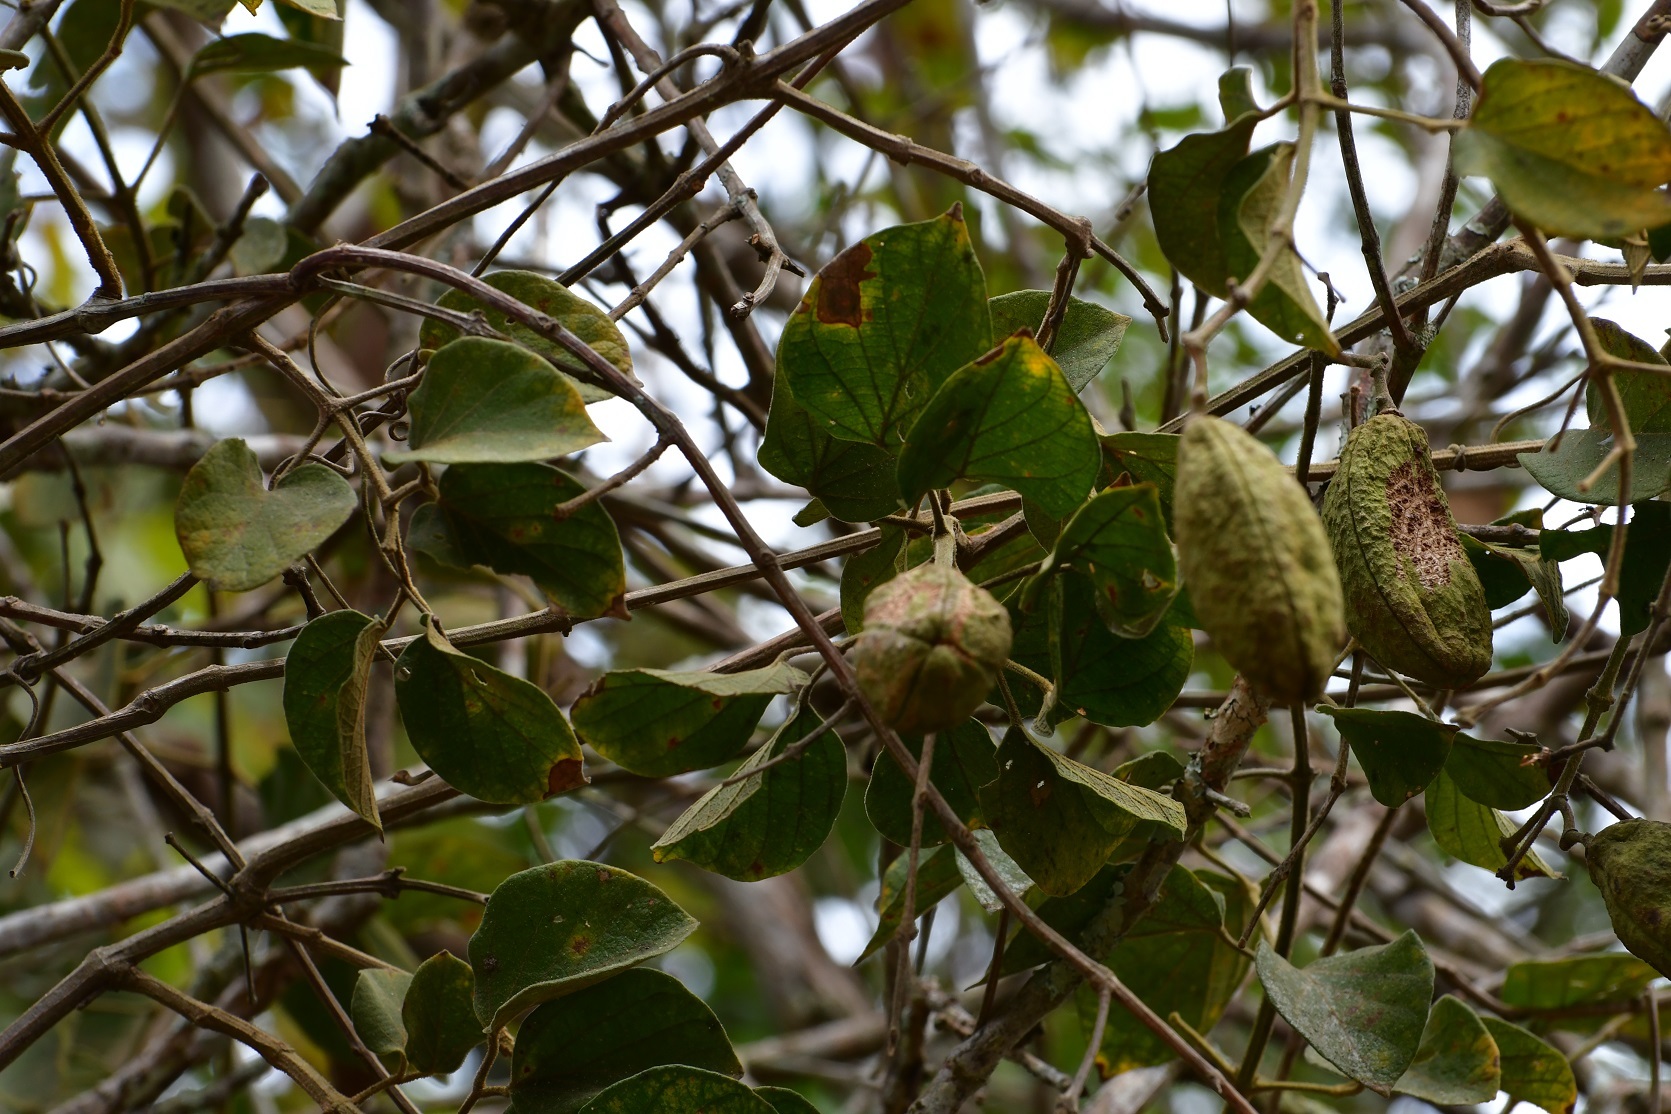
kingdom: Plantae
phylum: Tracheophyta
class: Magnoliopsida
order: Lamiales
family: Bignoniaceae
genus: Amphilophium
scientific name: Amphilophium paniculatum
